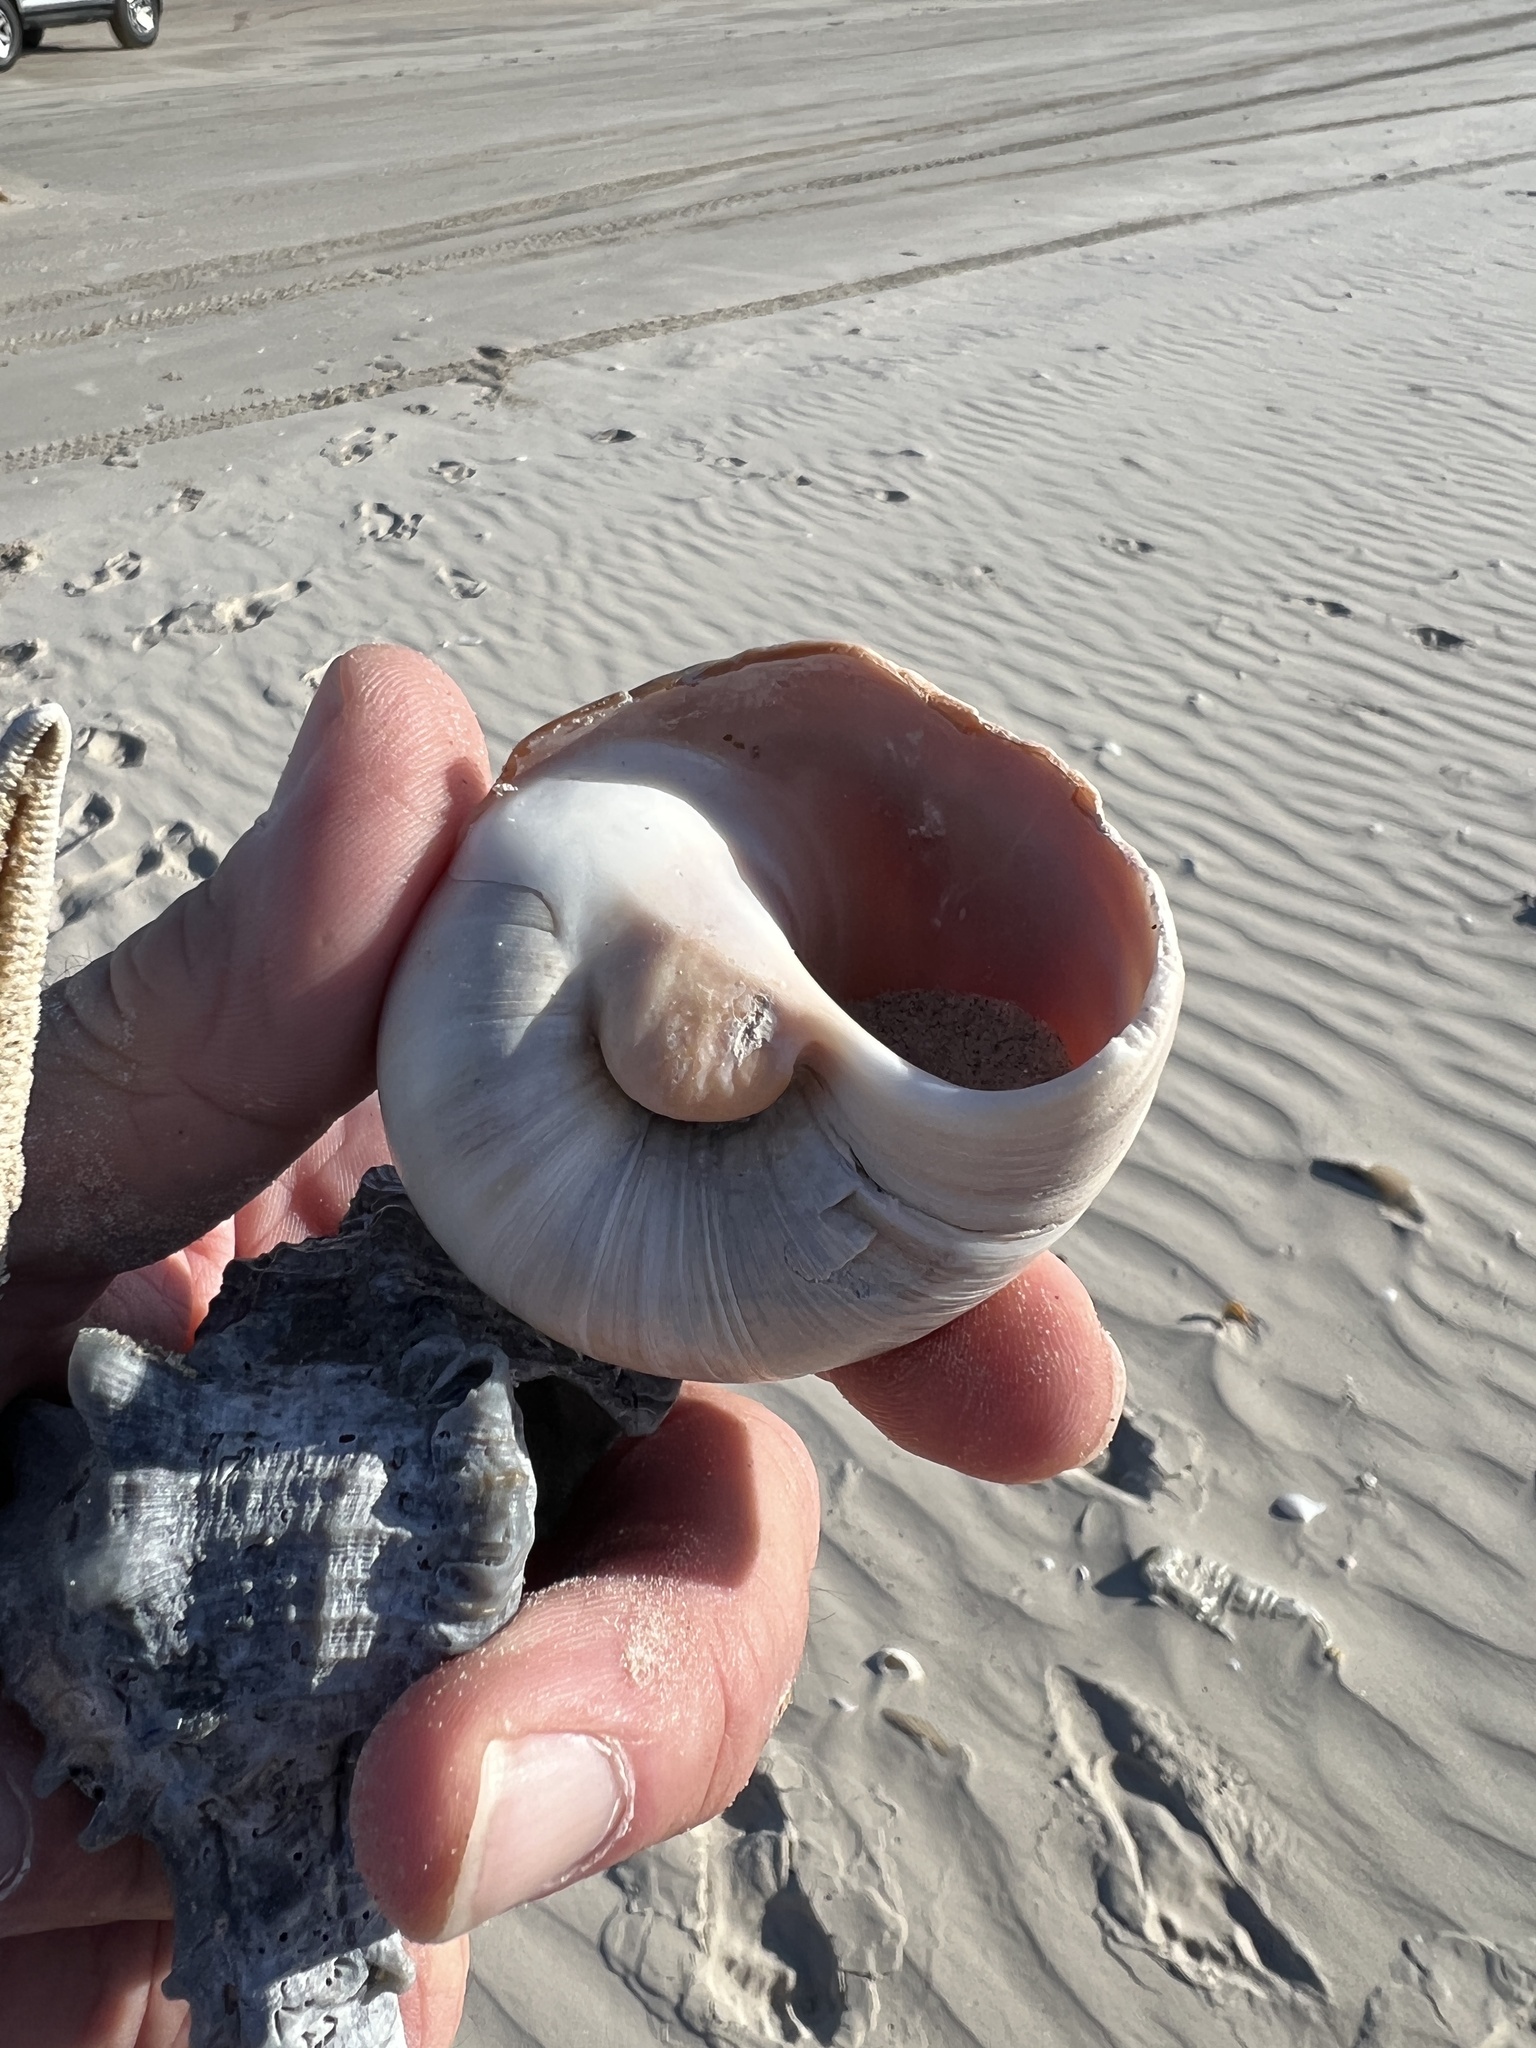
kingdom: Animalia
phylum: Mollusca
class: Gastropoda
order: Littorinimorpha
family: Naticidae
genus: Neverita
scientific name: Neverita duplicata
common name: Lobed moonsnail
